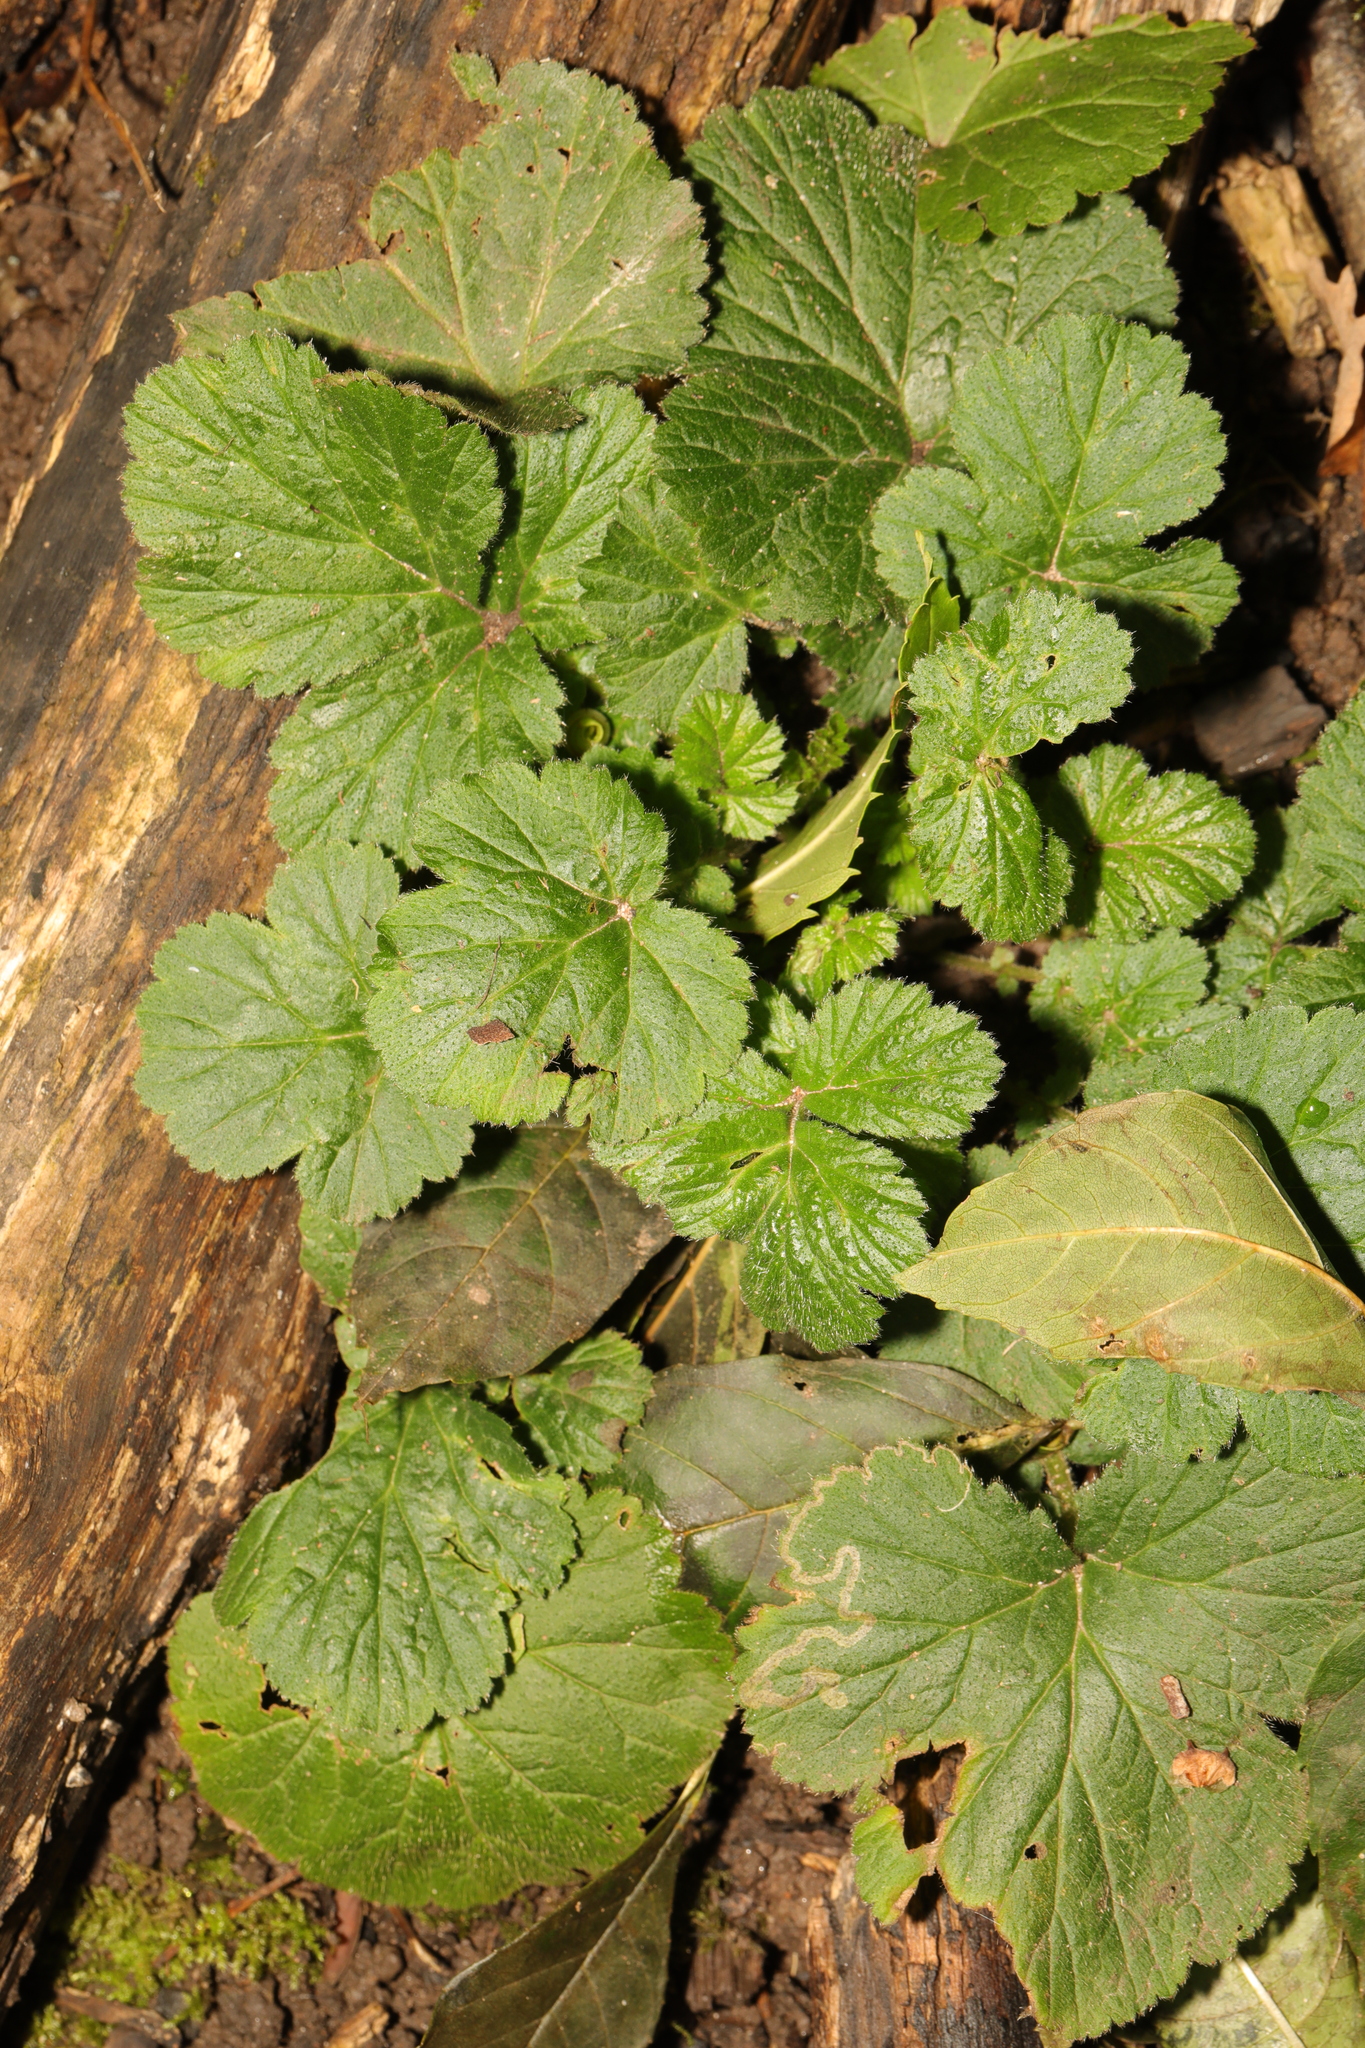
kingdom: Plantae
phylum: Tracheophyta
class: Magnoliopsida
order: Rosales
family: Rosaceae
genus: Geum
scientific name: Geum urbanum
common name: Wood avens
